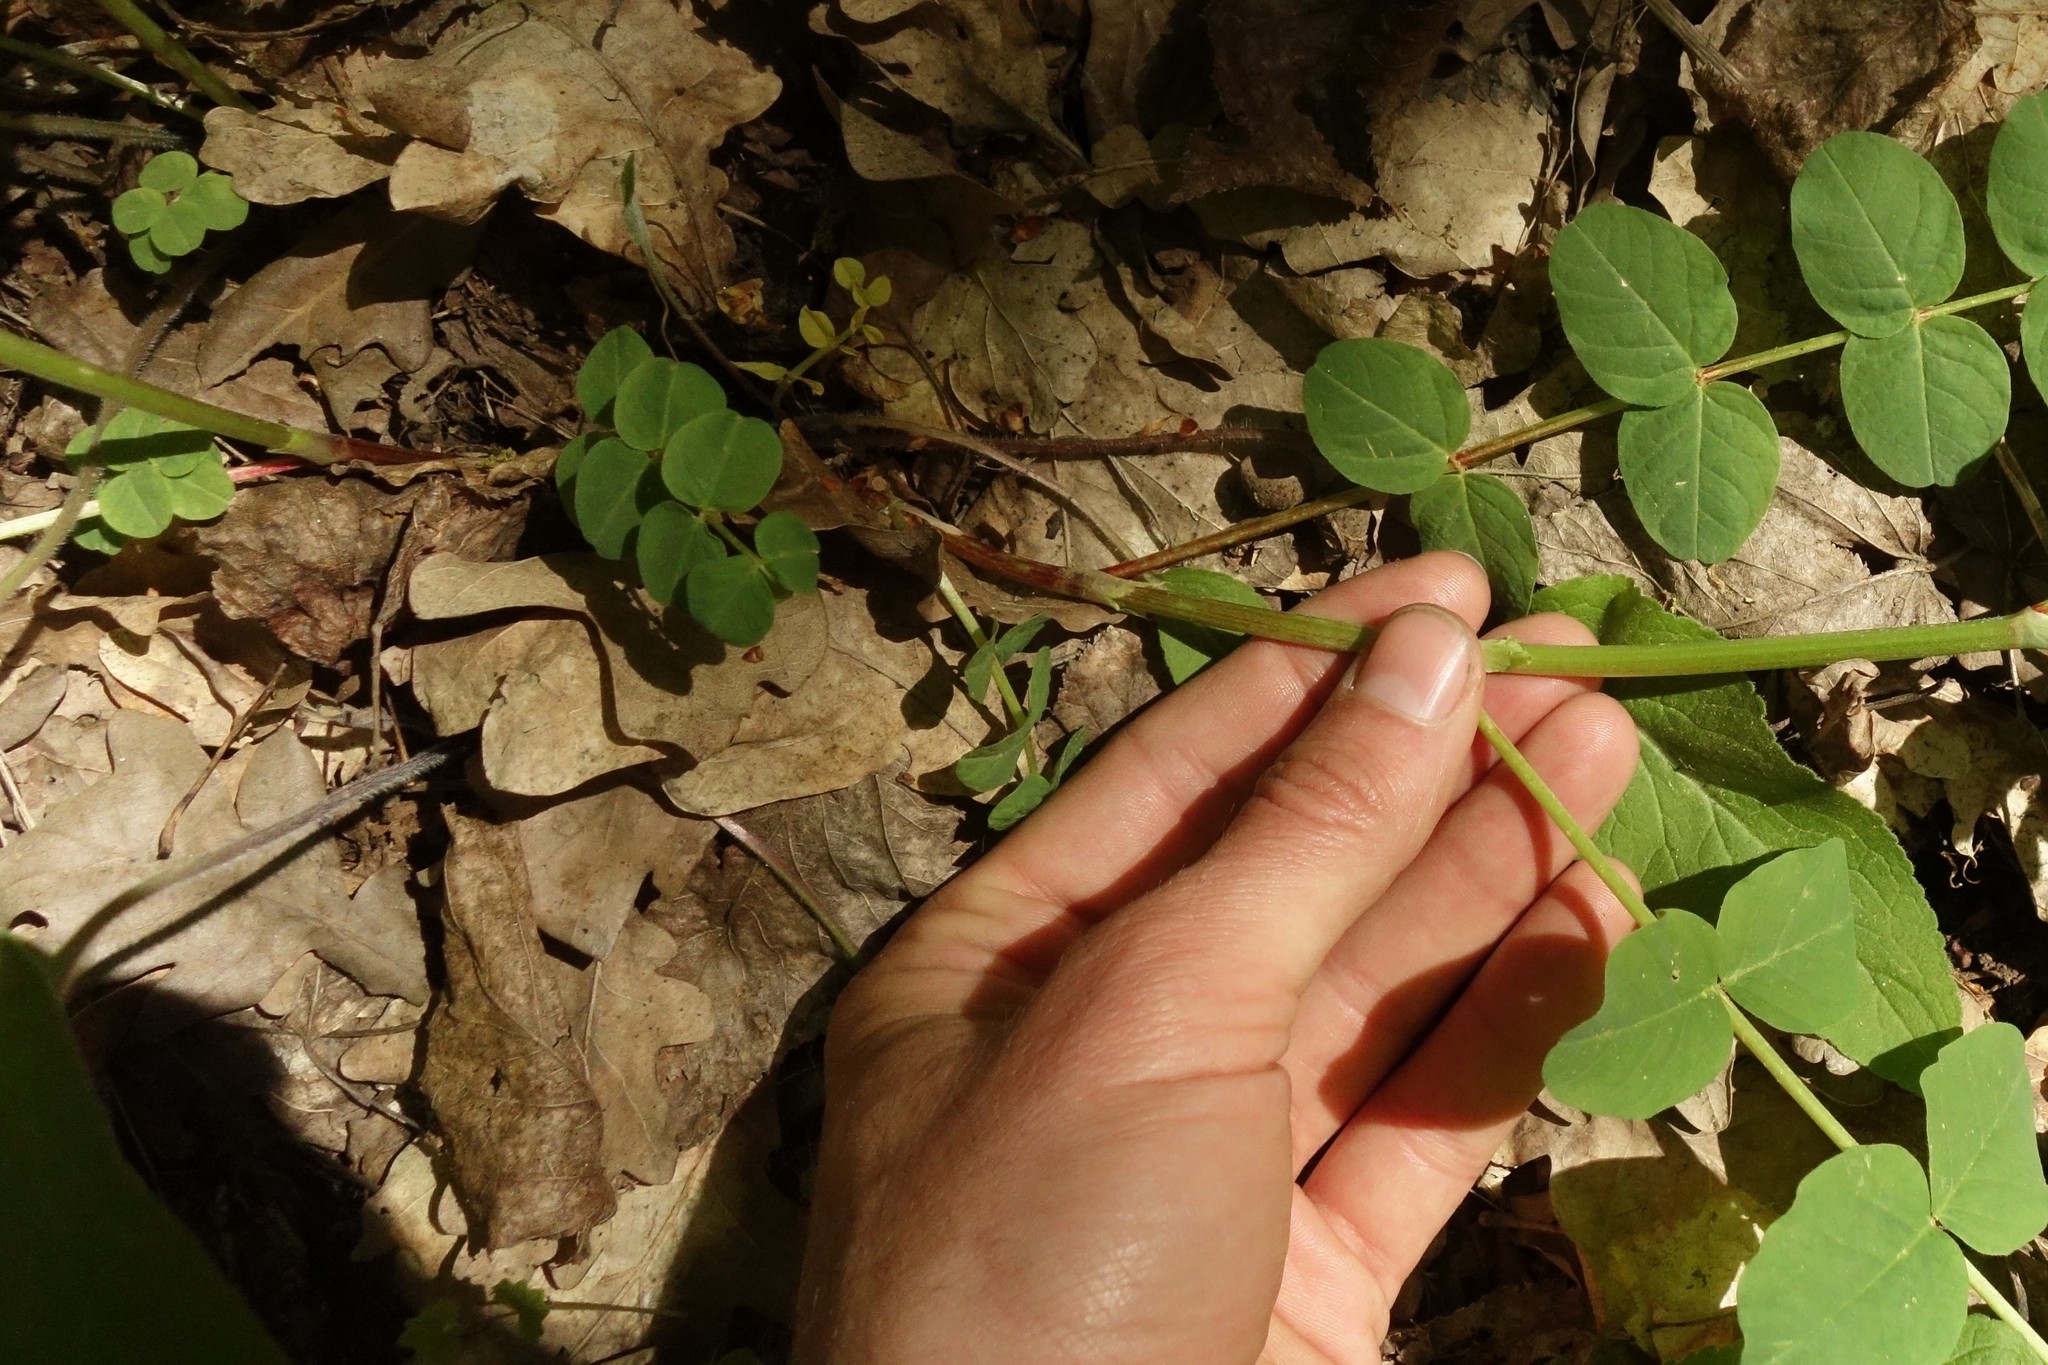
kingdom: Plantae
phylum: Tracheophyta
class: Magnoliopsida
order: Fabales
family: Fabaceae
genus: Astragalus
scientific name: Astragalus glycyphyllos
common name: Wild liquorice
